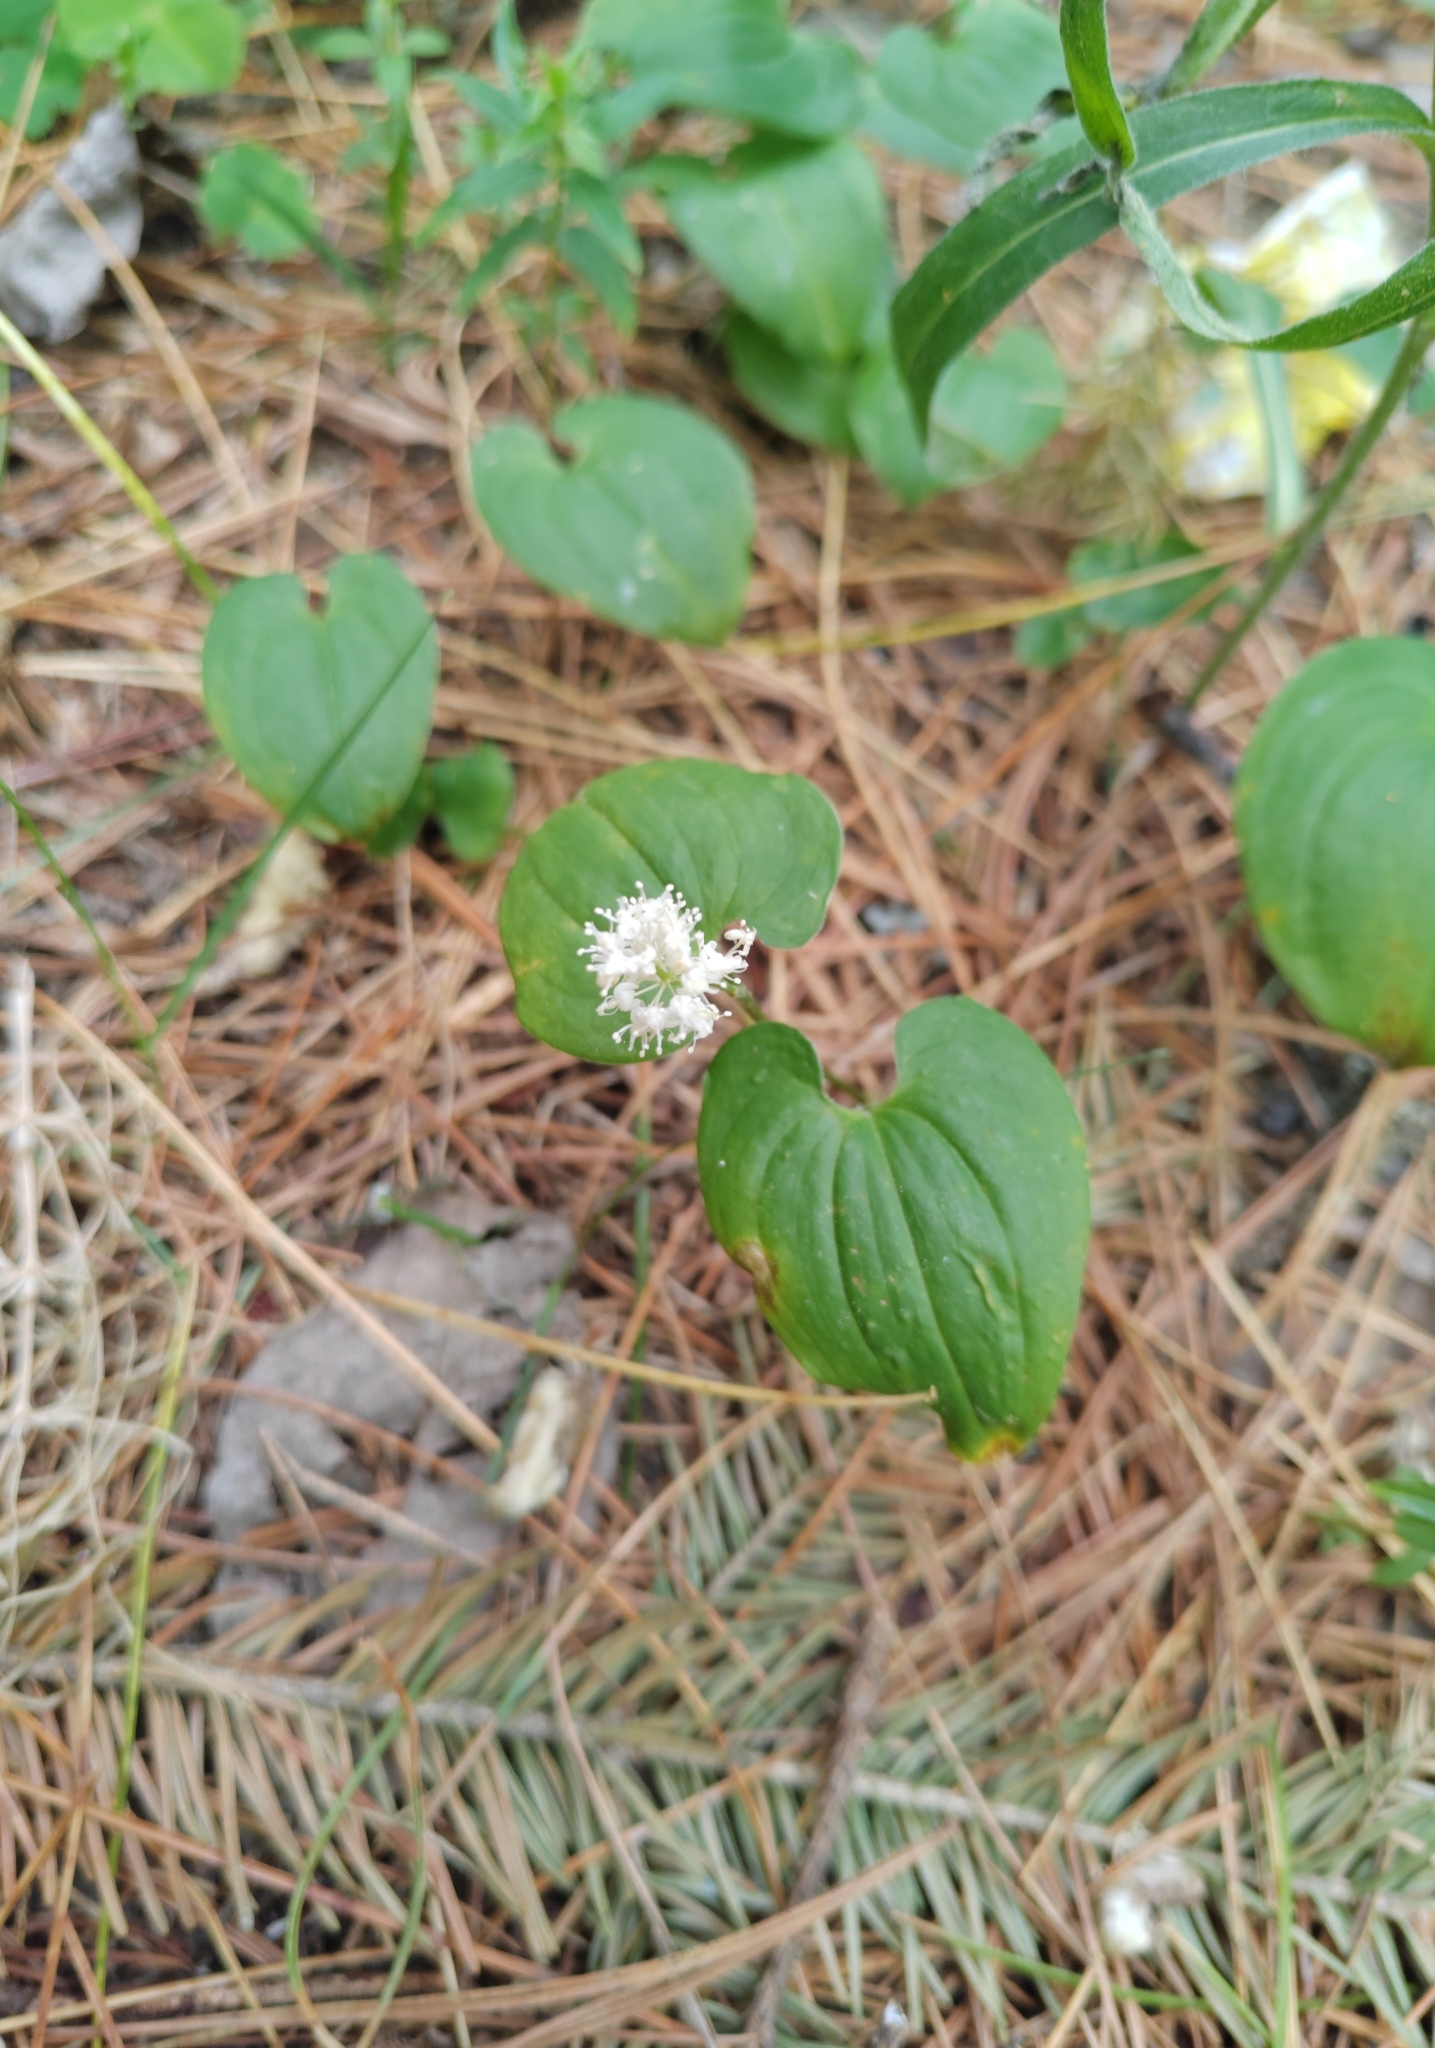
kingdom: Plantae
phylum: Tracheophyta
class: Liliopsida
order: Asparagales
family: Asparagaceae
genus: Maianthemum
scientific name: Maianthemum bifolium
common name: May lily
